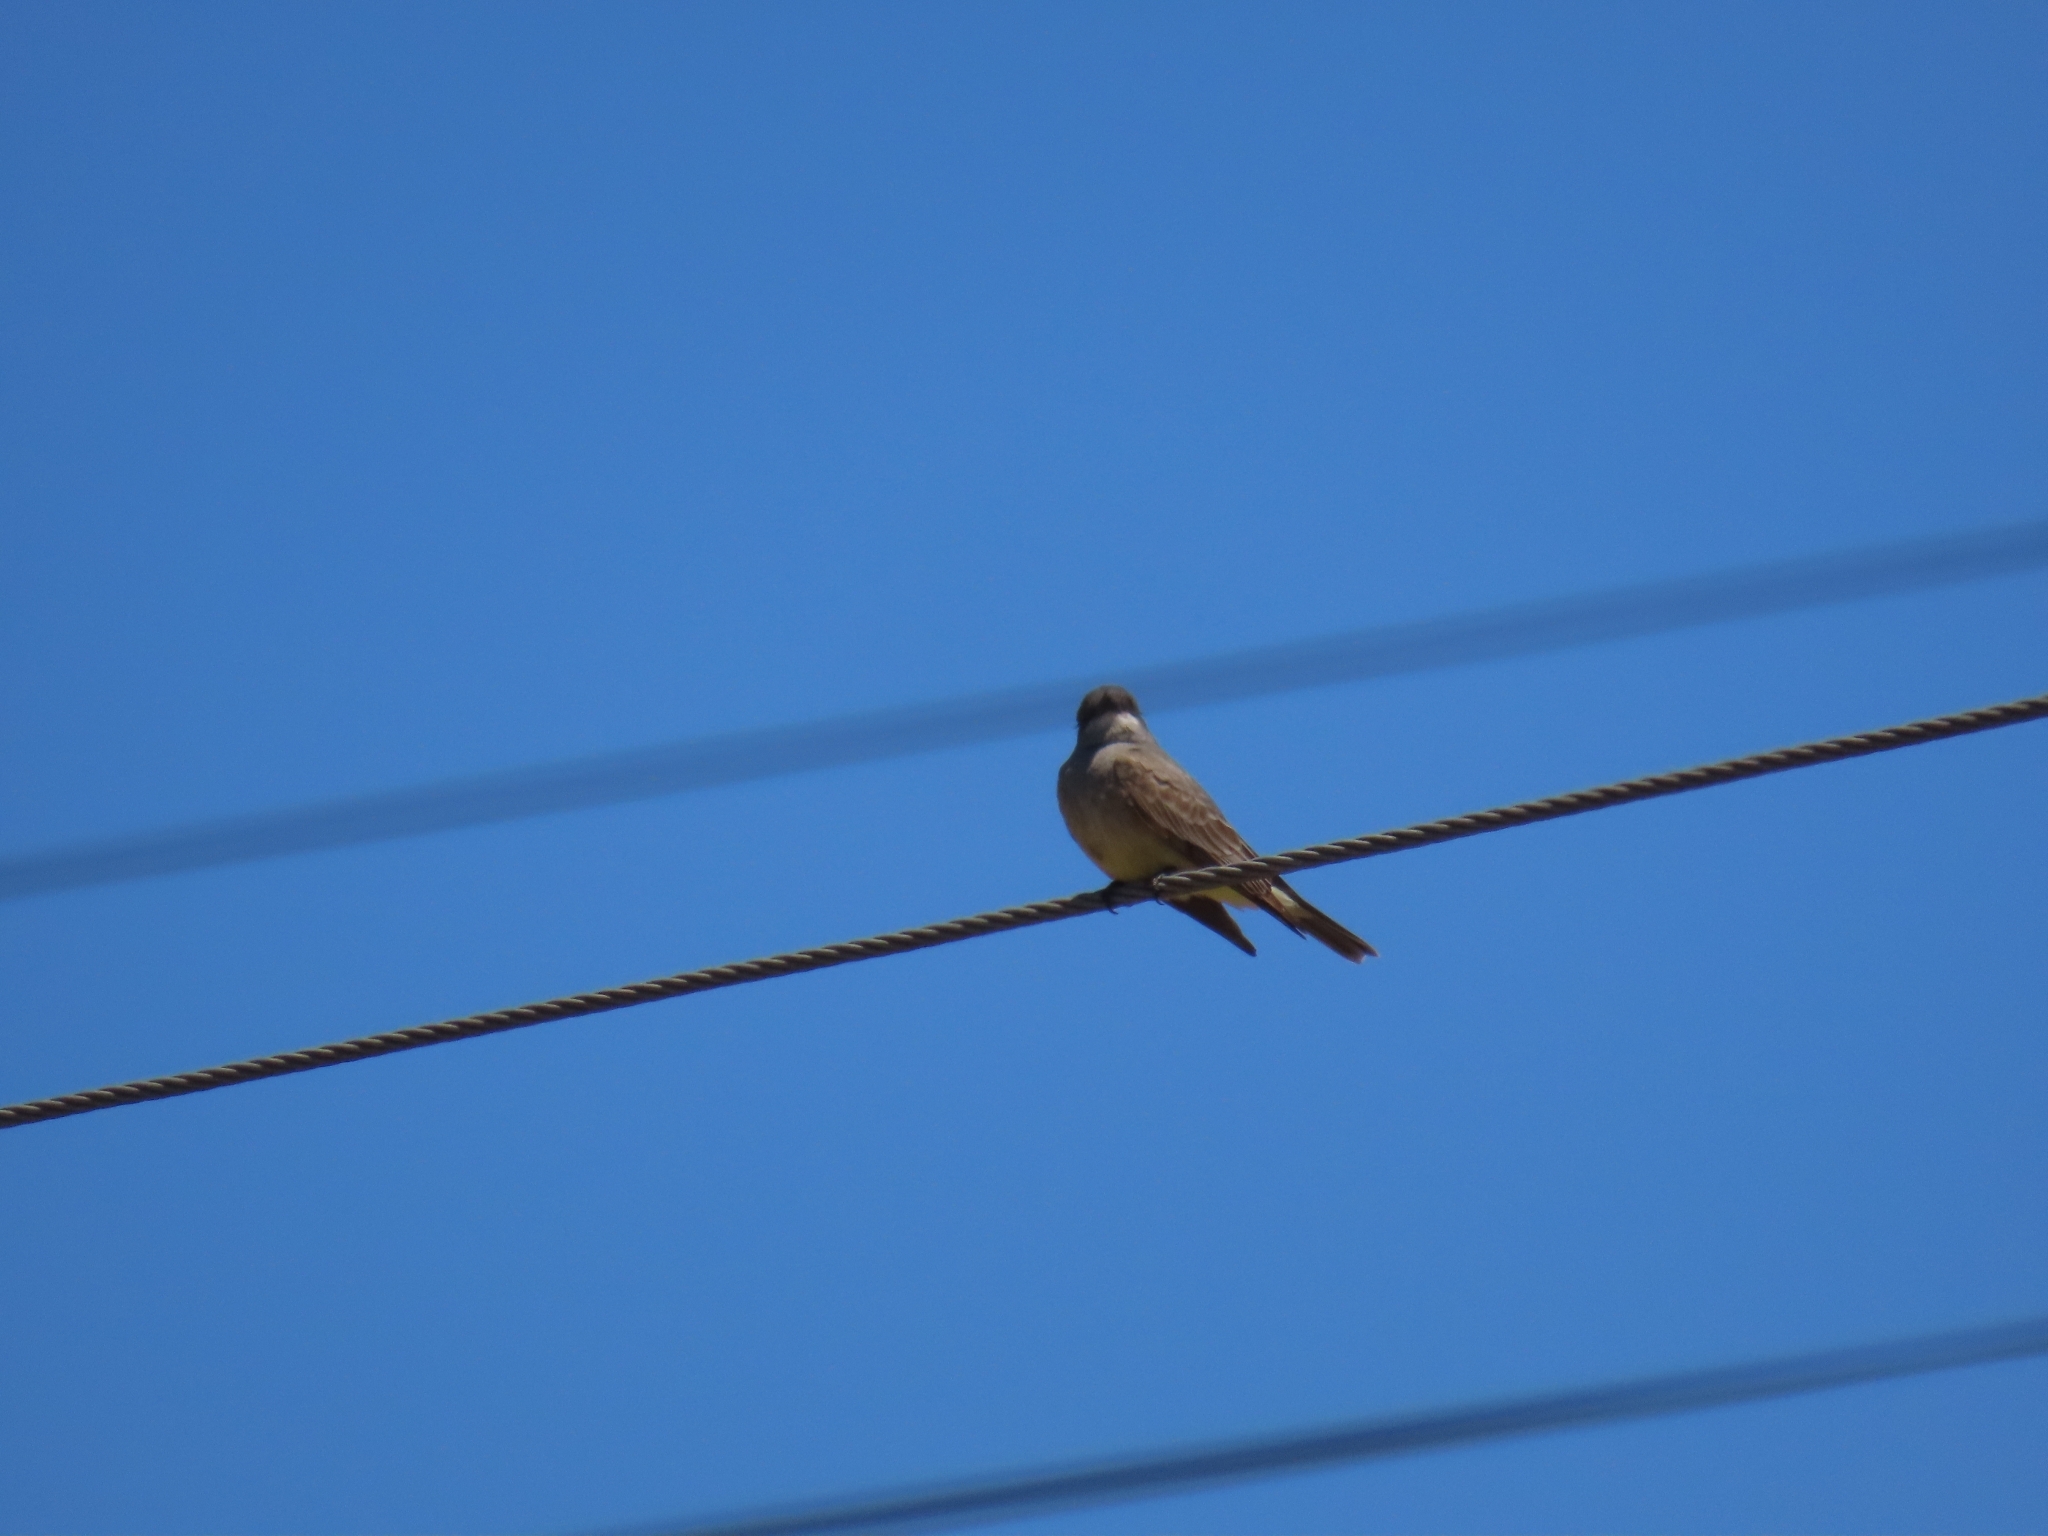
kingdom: Animalia
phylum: Chordata
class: Aves
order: Passeriformes
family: Tyrannidae
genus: Tyrannus
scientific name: Tyrannus vociferans
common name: Cassin's kingbird
